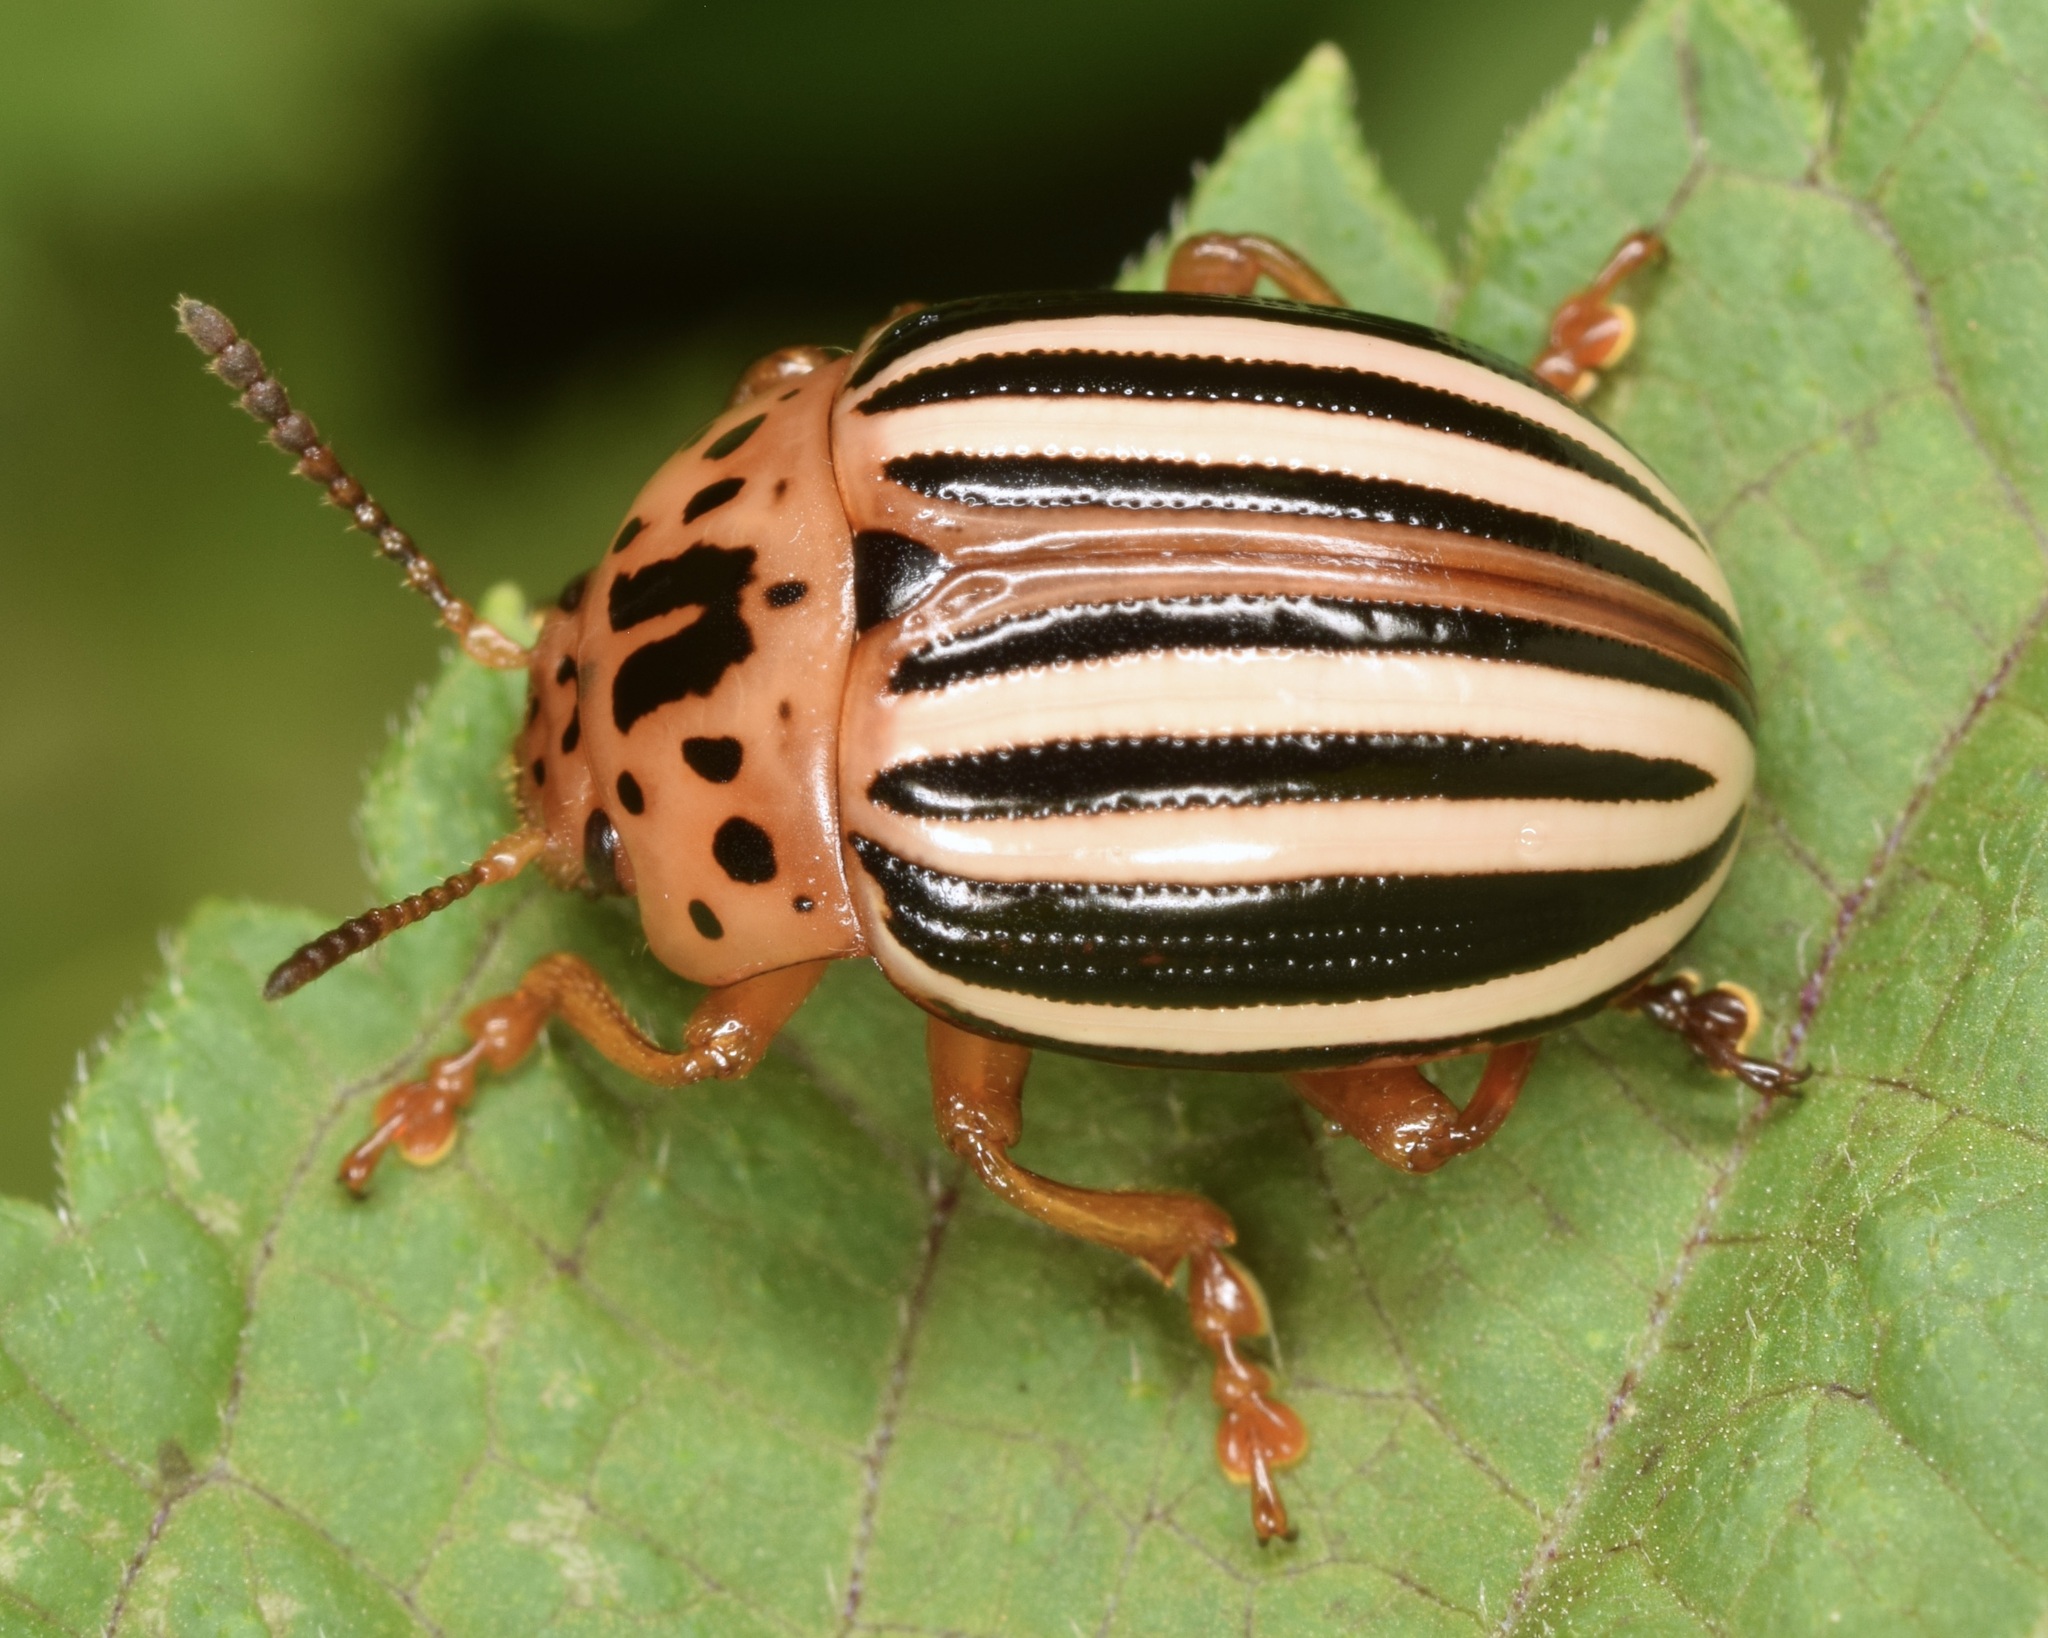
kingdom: Animalia
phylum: Arthropoda
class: Insecta
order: Coleoptera
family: Chrysomelidae
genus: Leptinotarsa
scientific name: Leptinotarsa juncta
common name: False potato beetle
